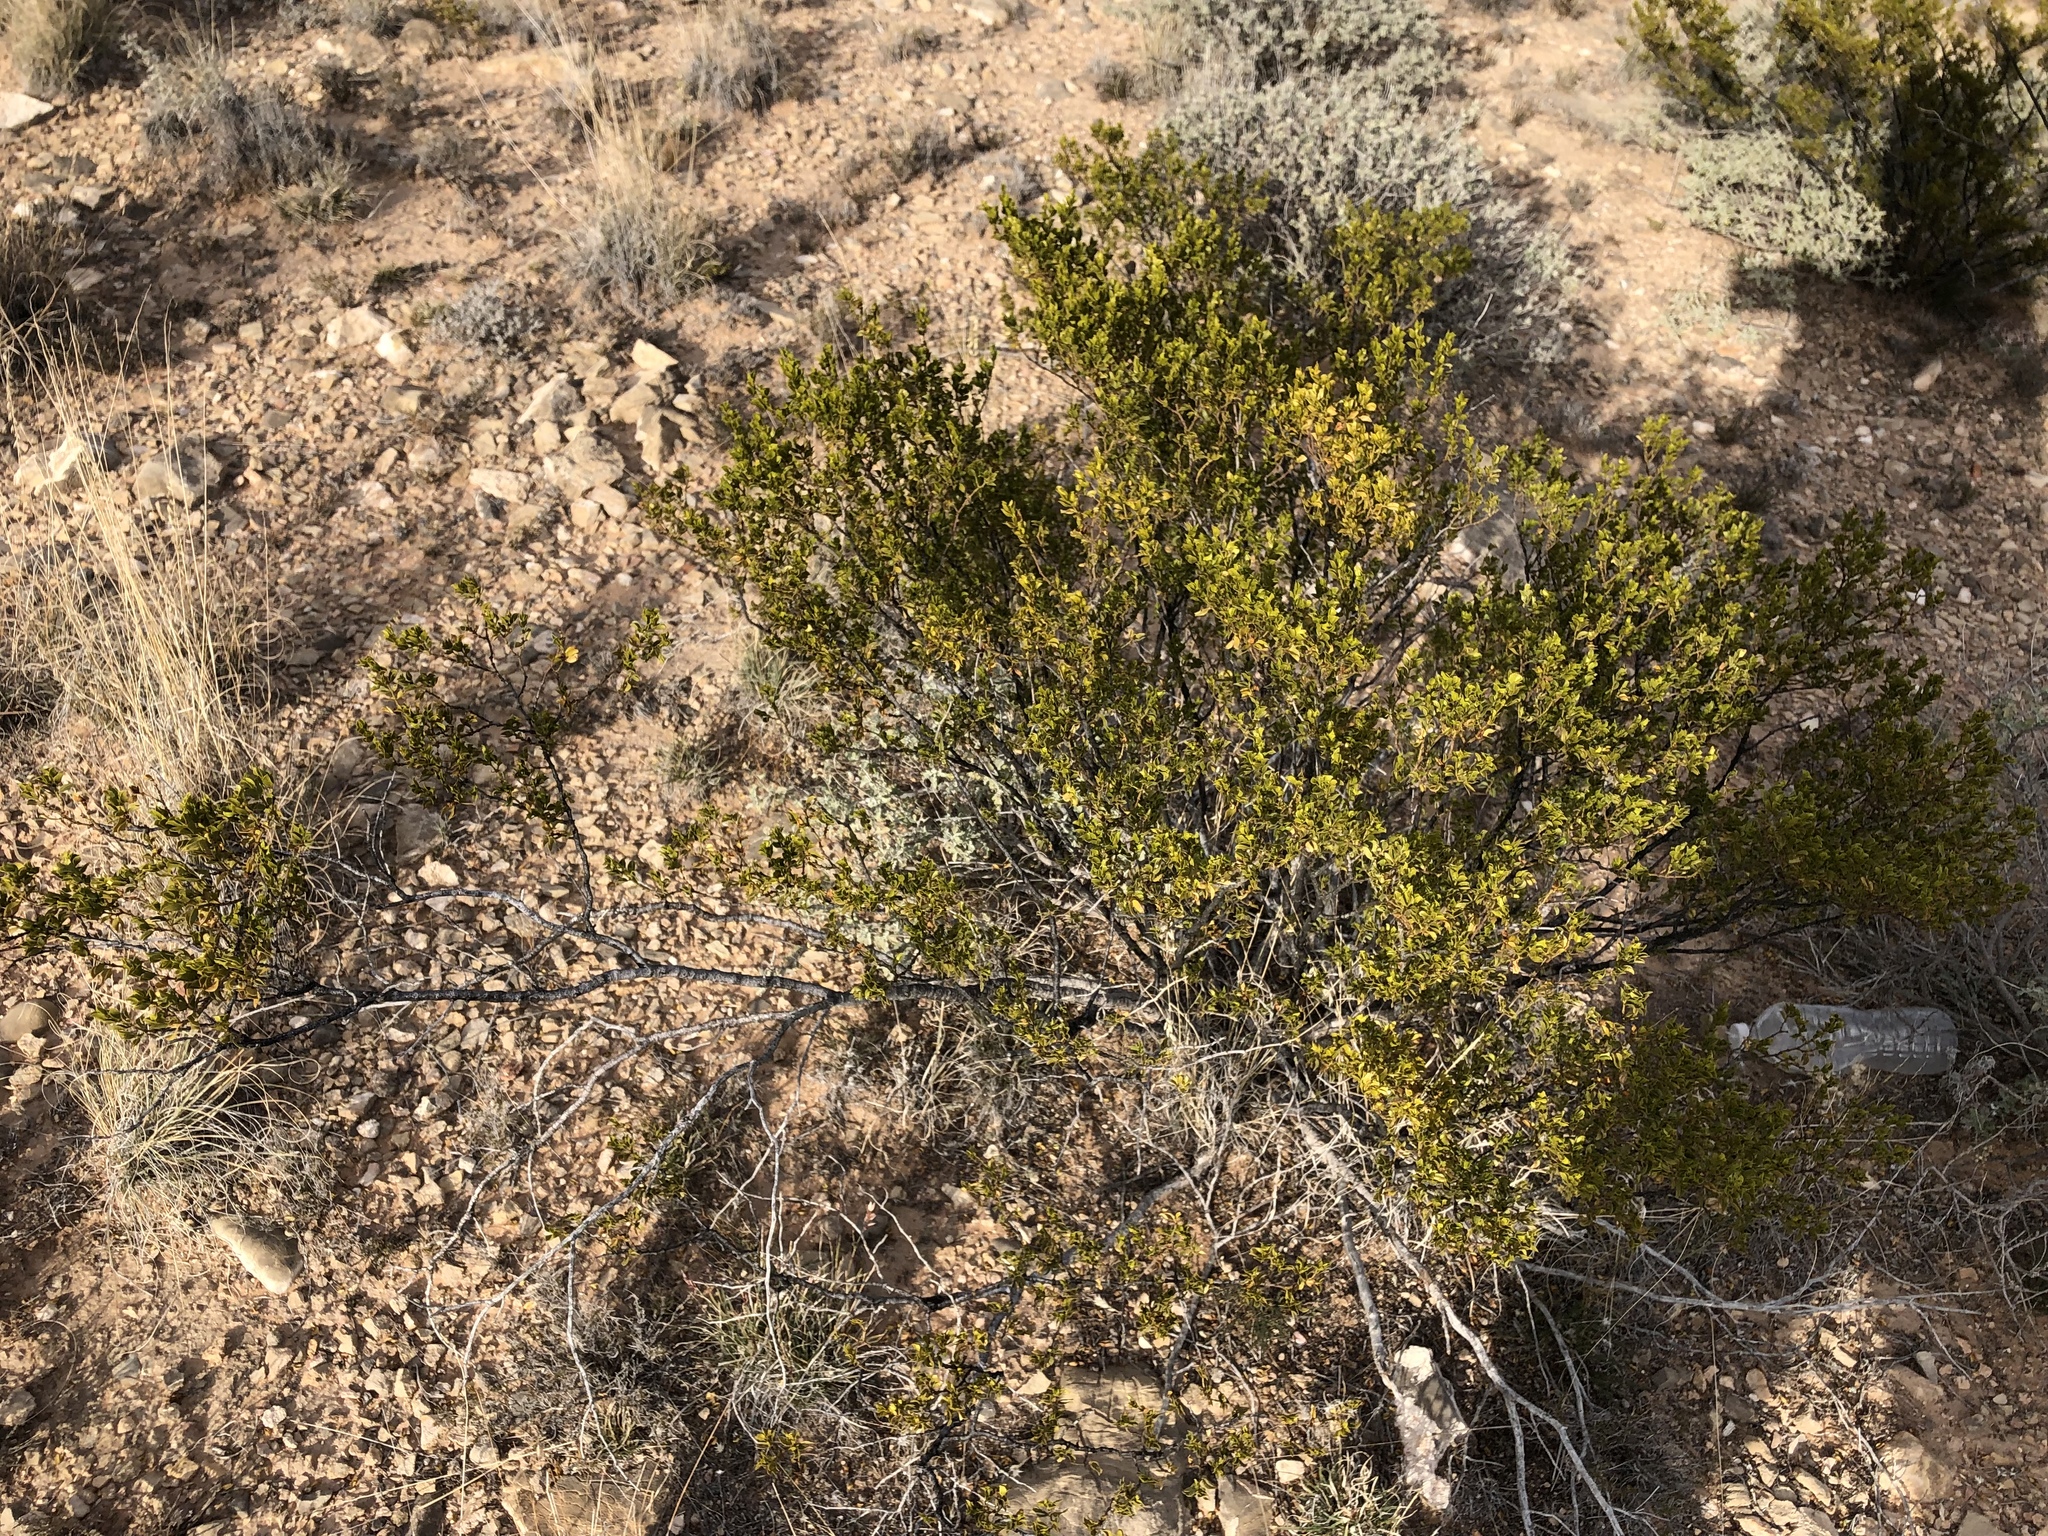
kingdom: Plantae
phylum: Tracheophyta
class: Magnoliopsida
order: Zygophyllales
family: Zygophyllaceae
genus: Larrea
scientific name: Larrea tridentata
